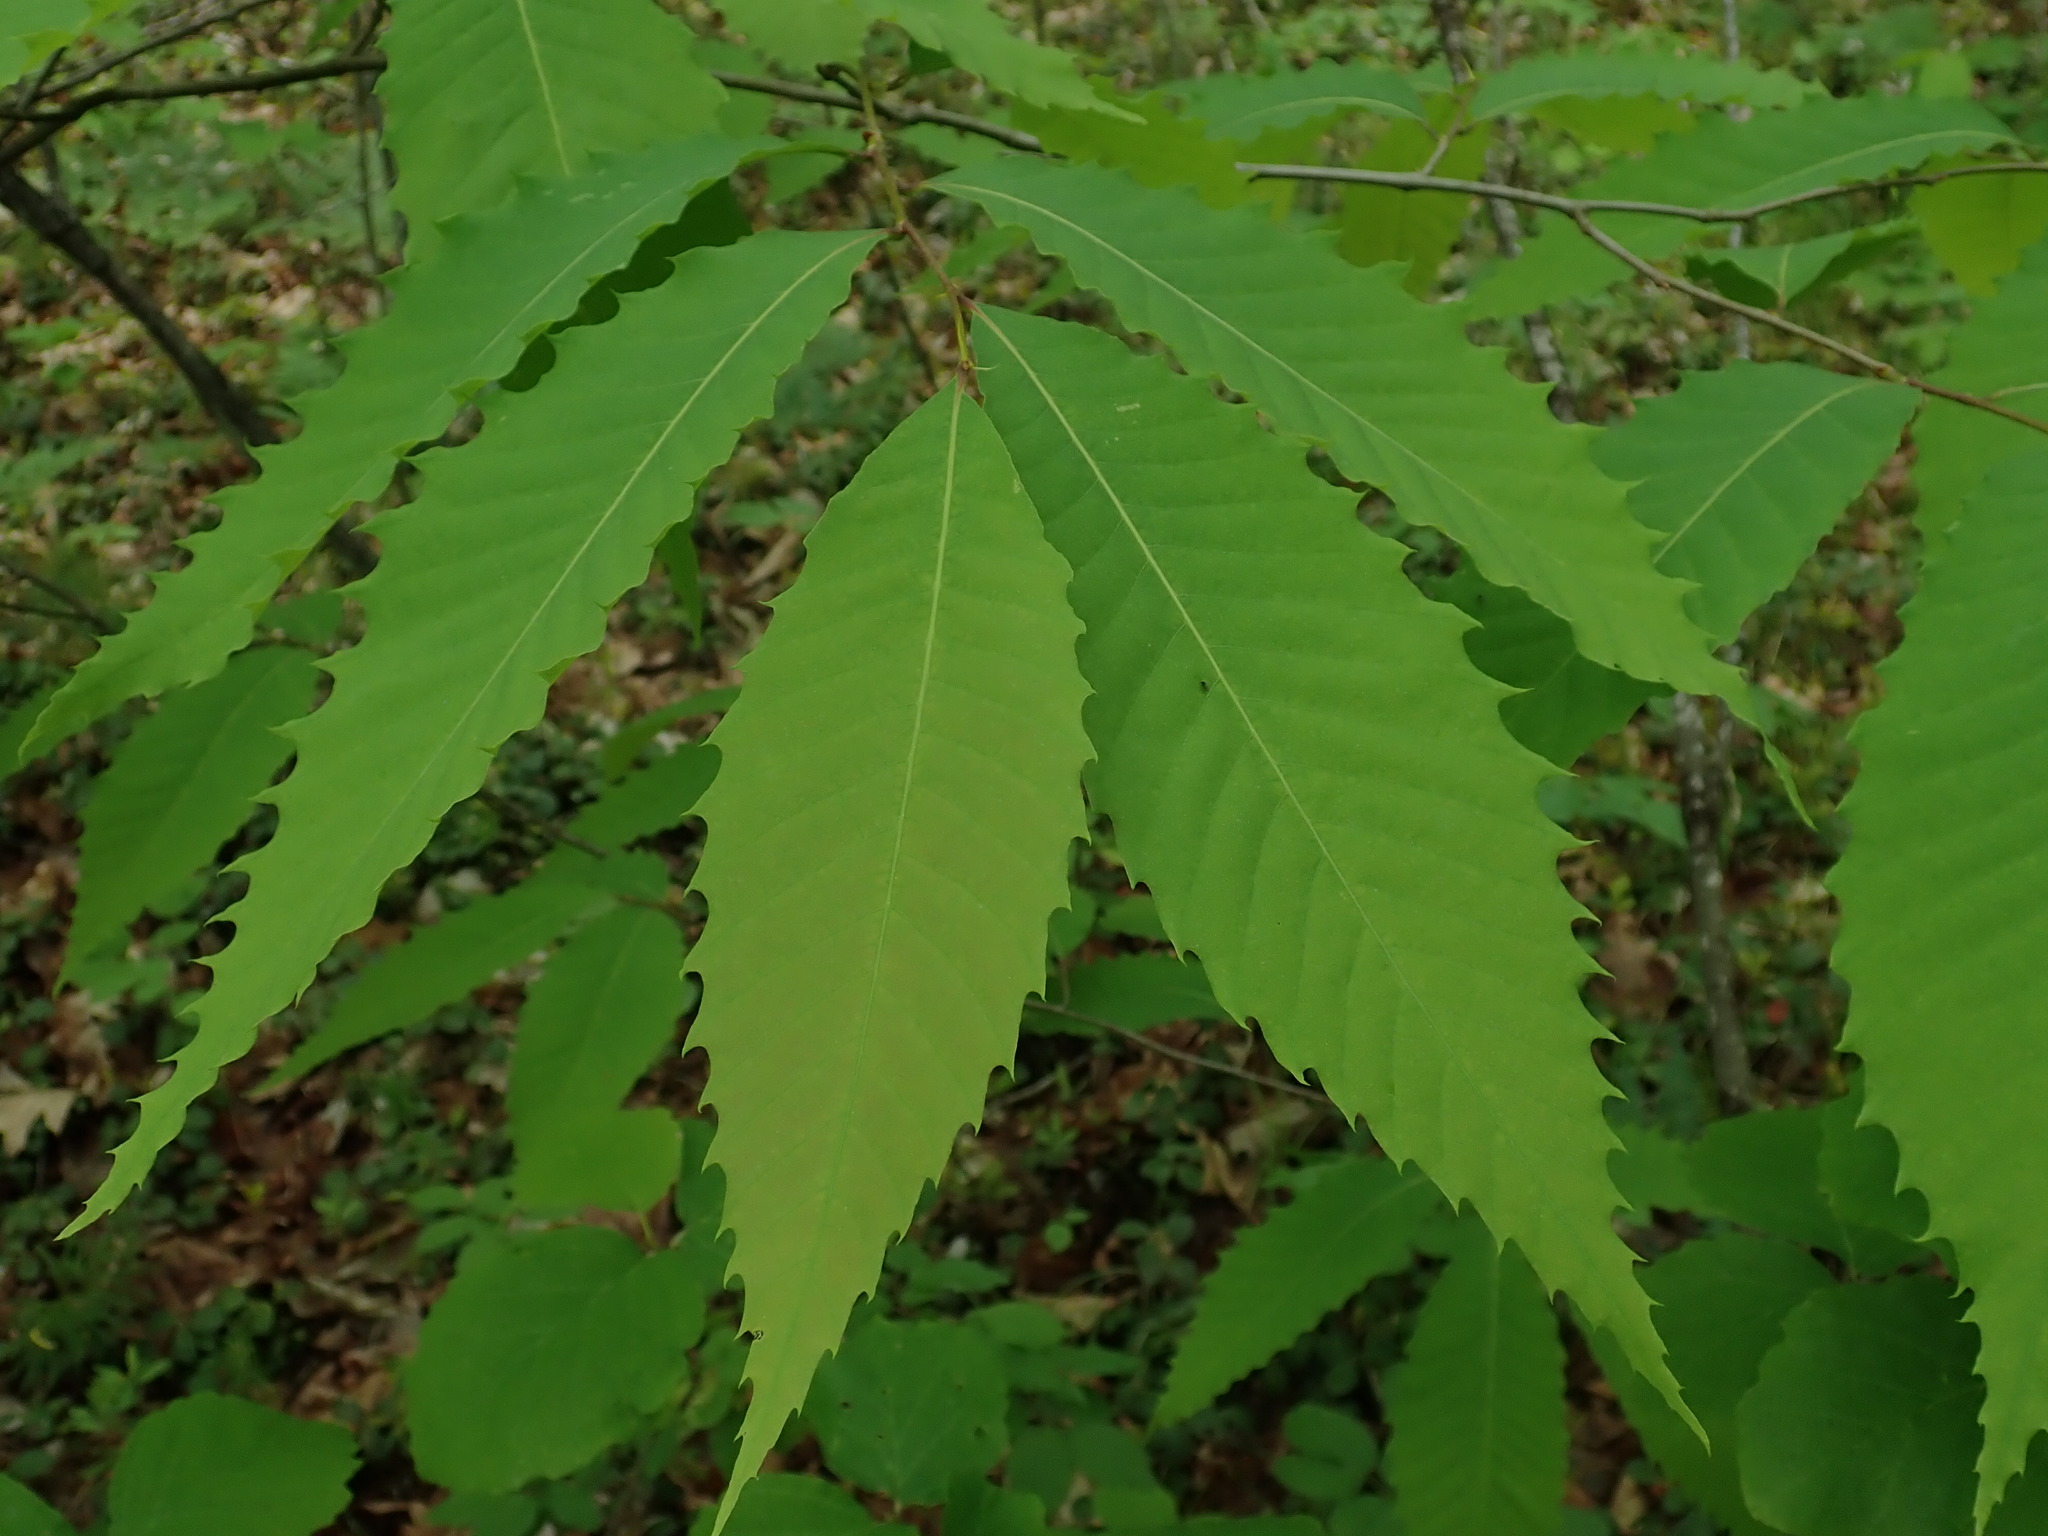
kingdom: Plantae
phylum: Tracheophyta
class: Magnoliopsida
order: Fagales
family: Fagaceae
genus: Castanea
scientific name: Castanea dentata
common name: American chestnut
